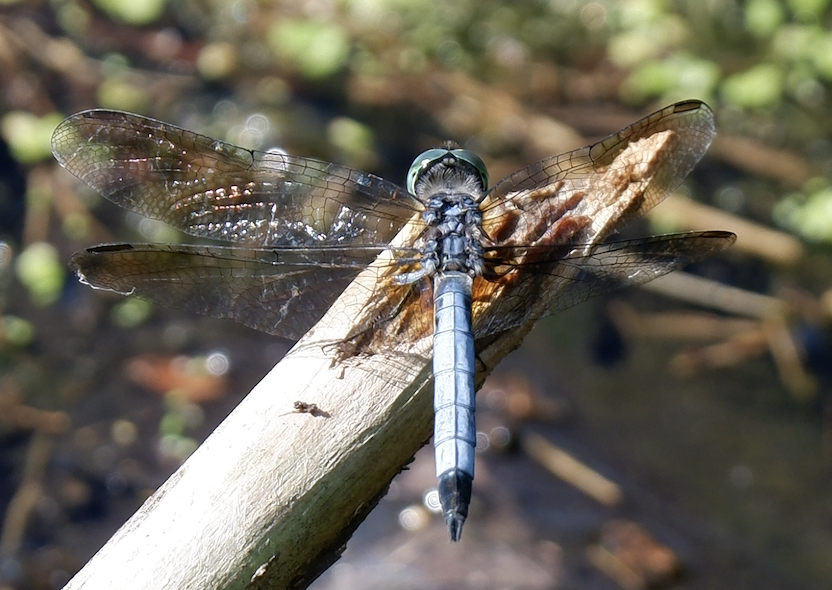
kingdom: Animalia
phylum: Arthropoda
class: Insecta
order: Odonata
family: Libellulidae
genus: Pachydiplax
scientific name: Pachydiplax longipennis
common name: Blue dasher
